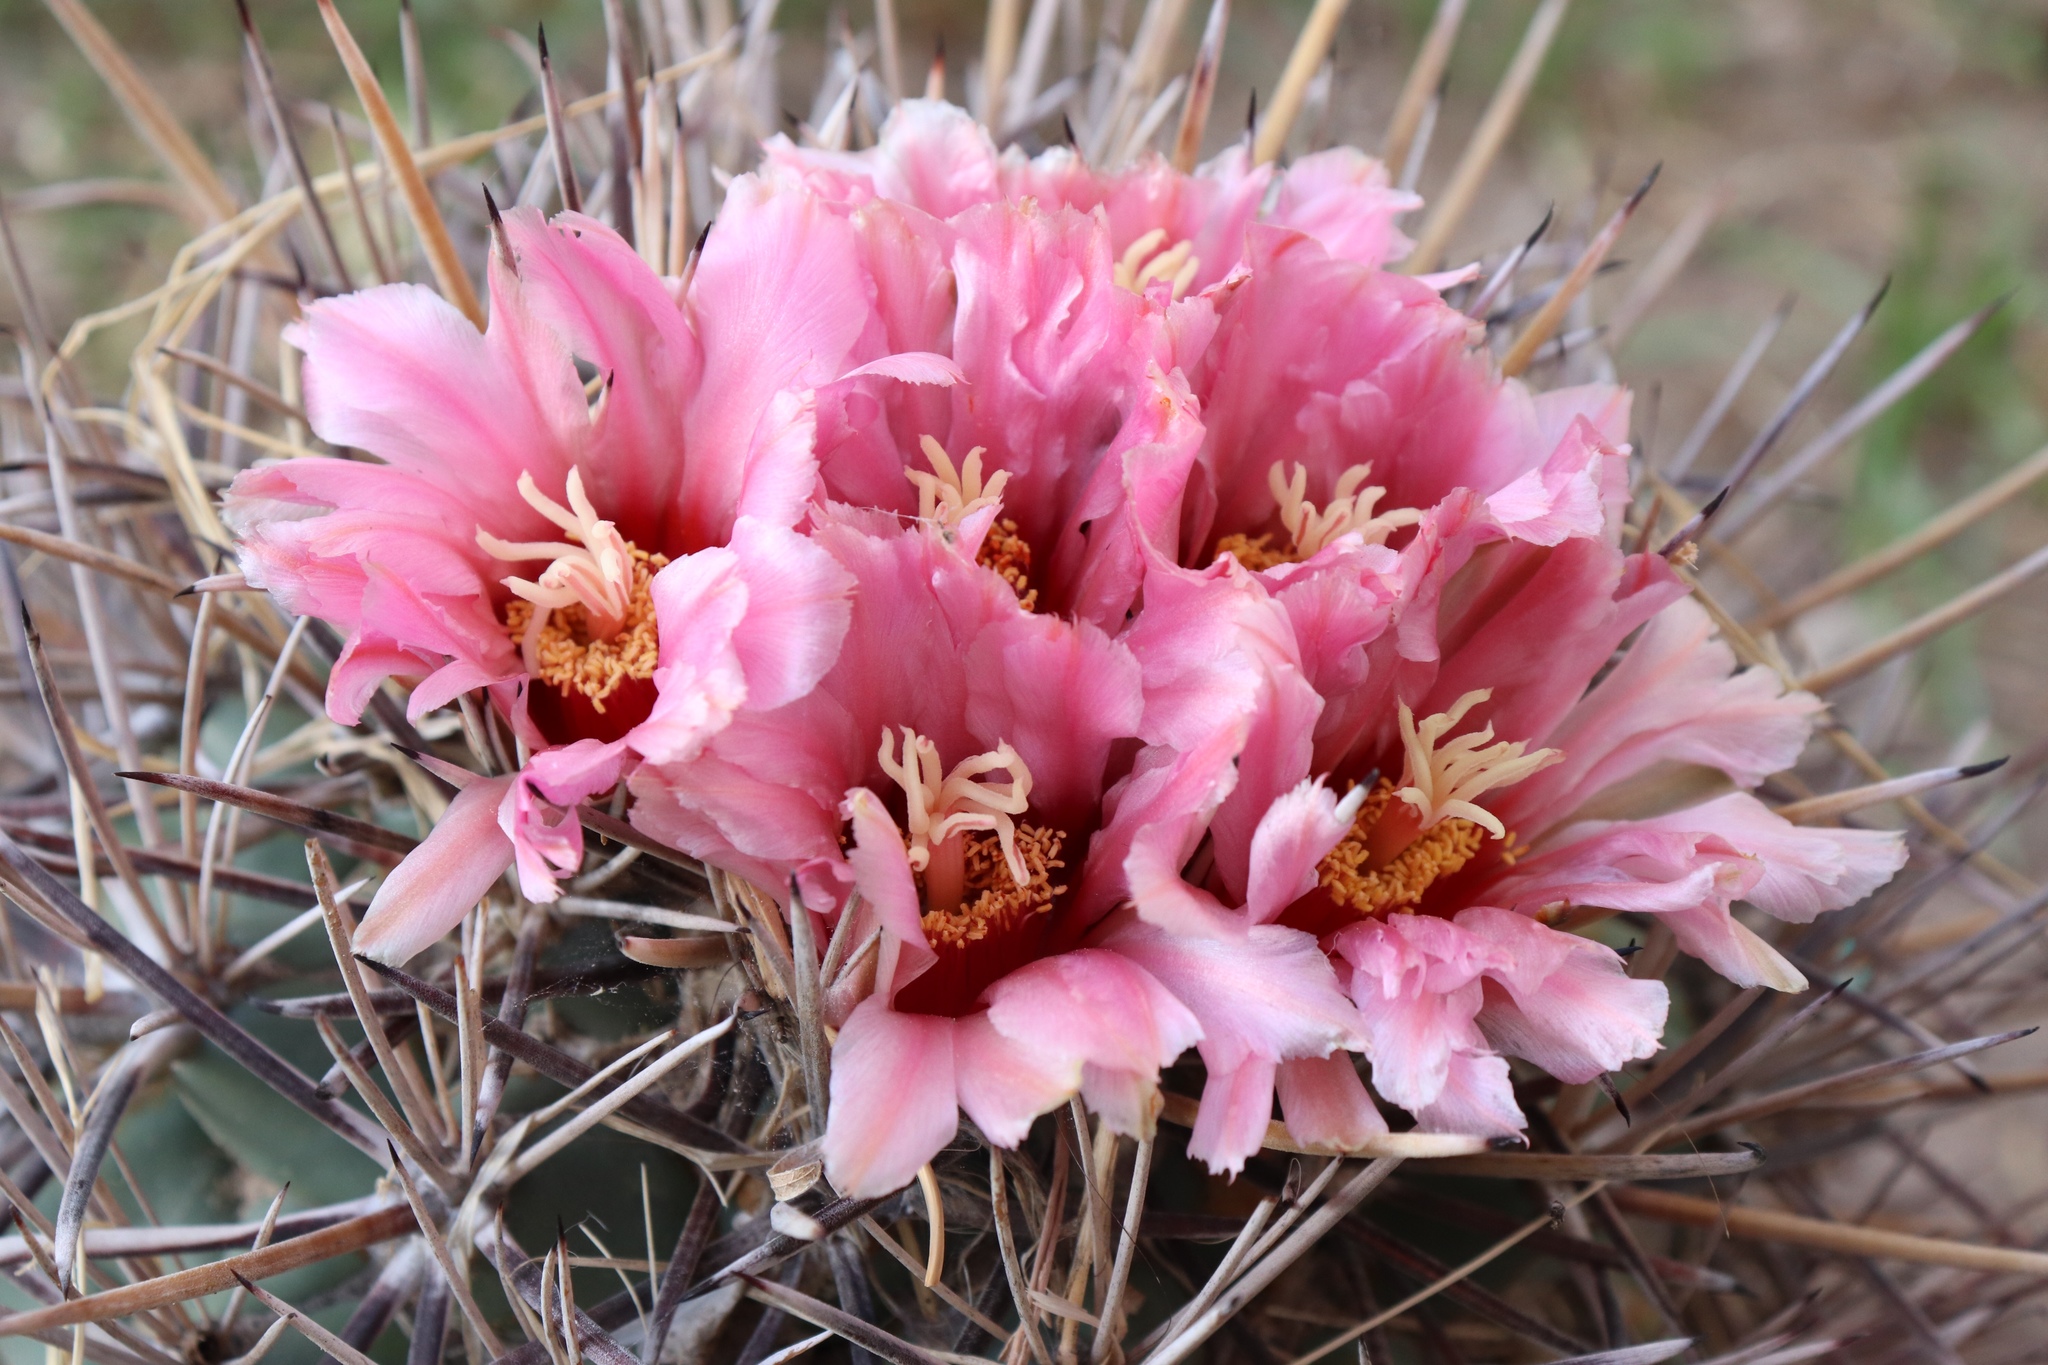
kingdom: Plantae
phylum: Tracheophyta
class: Magnoliopsida
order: Caryophyllales
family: Cactaceae
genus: Coryphantha
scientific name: Coryphantha poselgeriana
